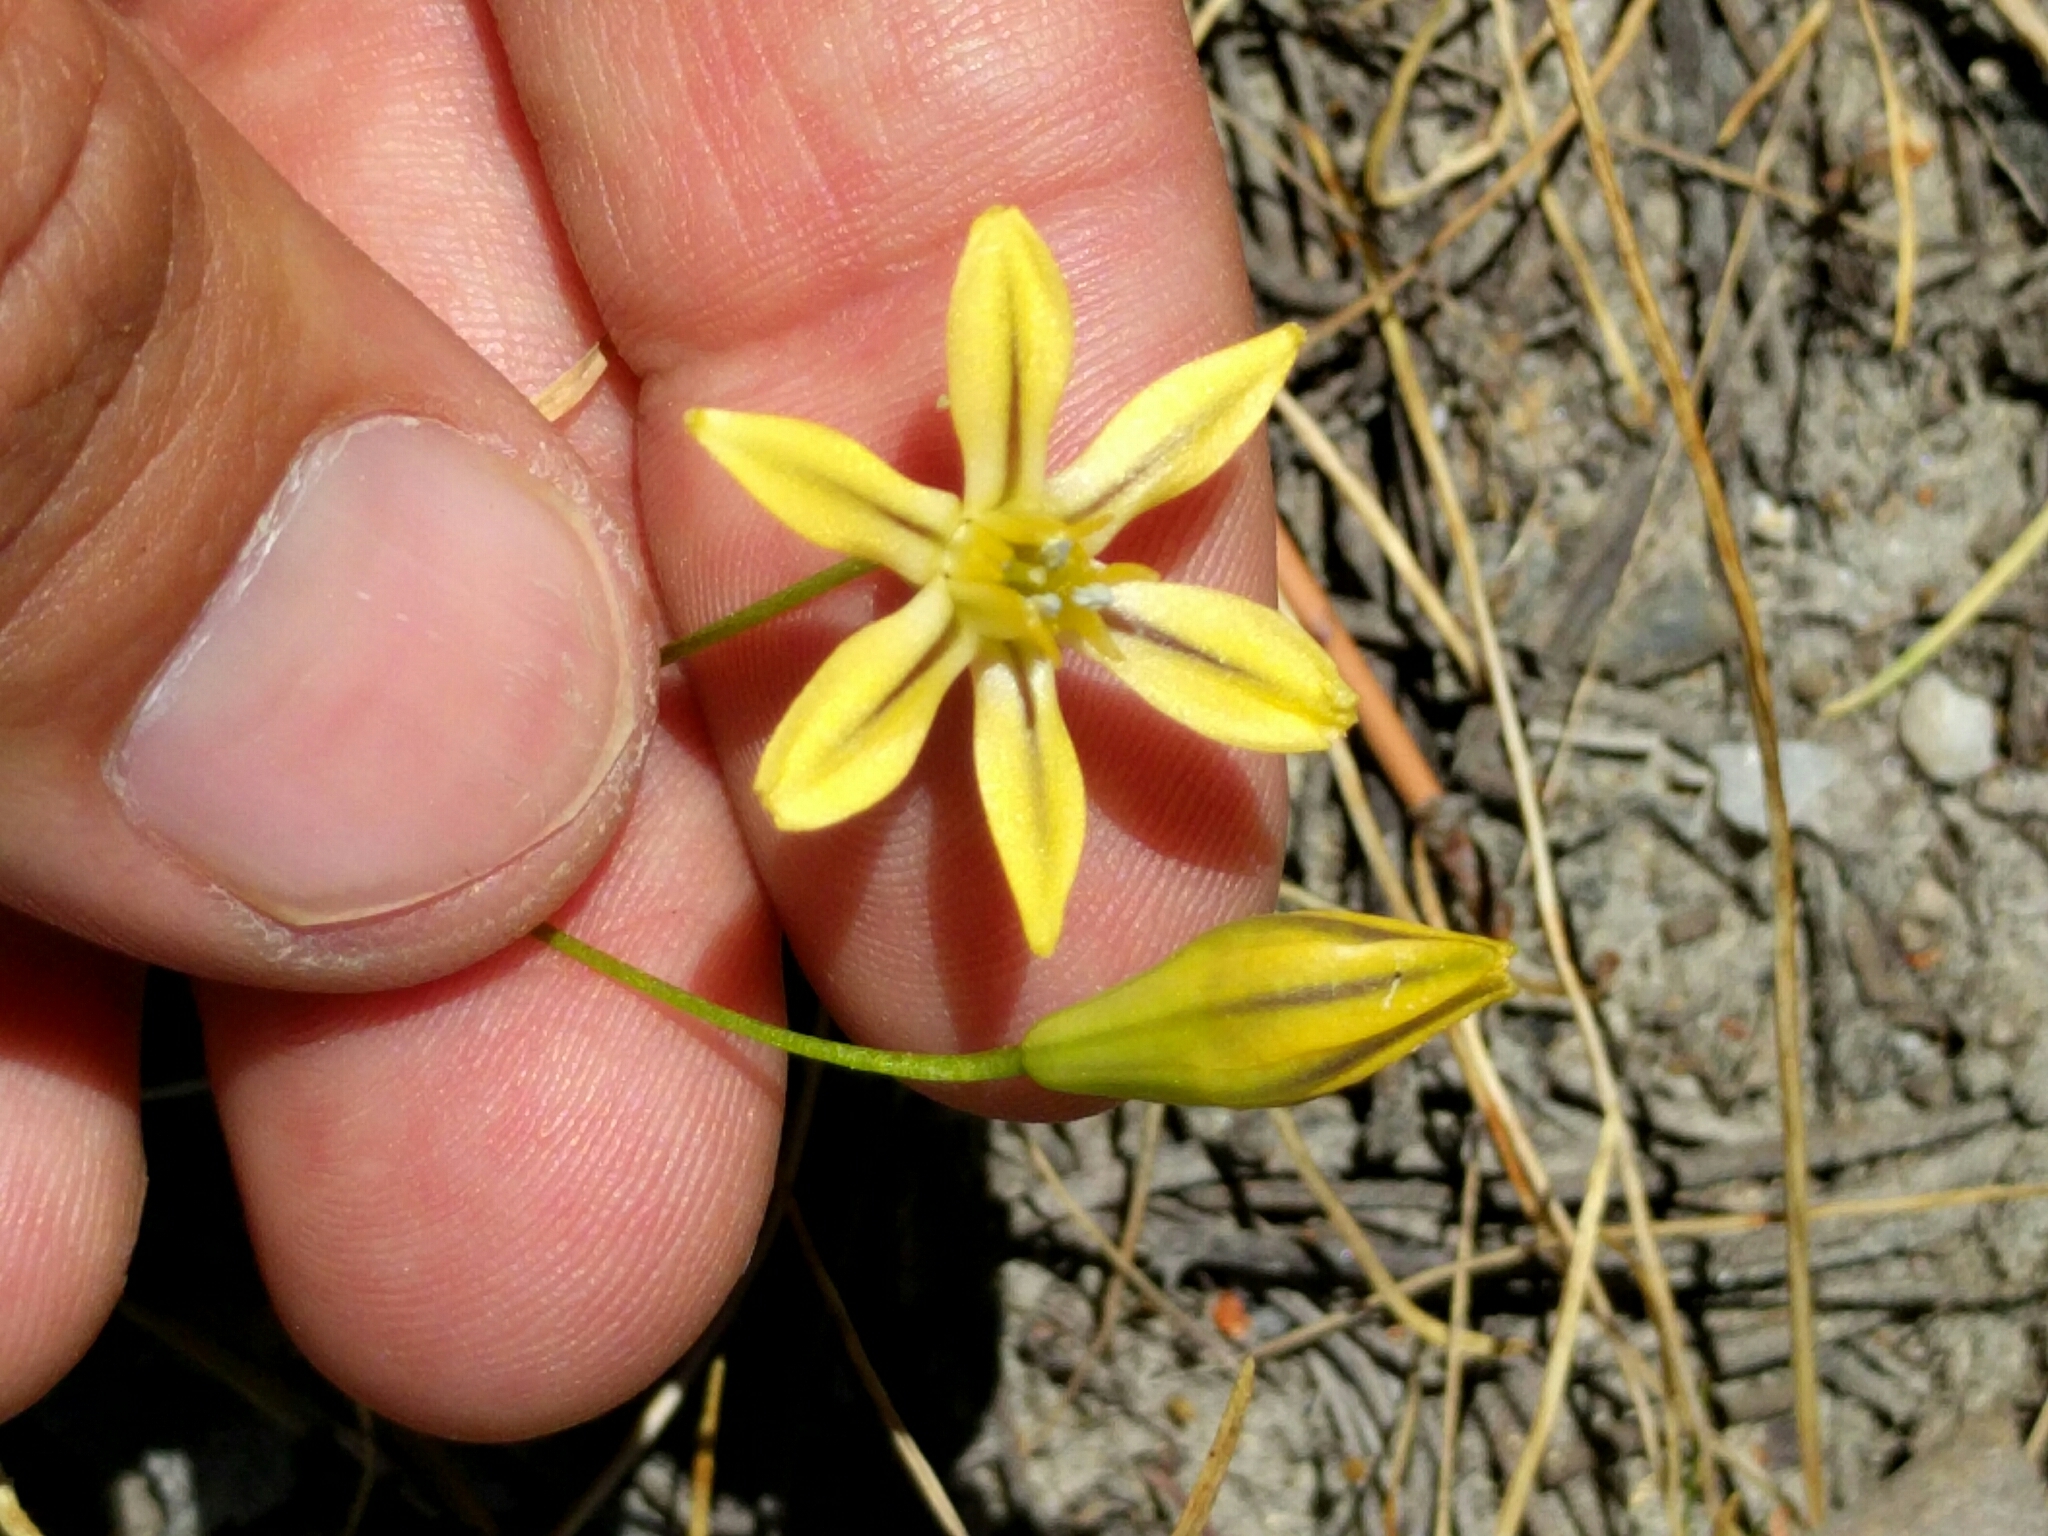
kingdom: Plantae
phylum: Tracheophyta
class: Liliopsida
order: Asparagales
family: Asparagaceae
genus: Triteleia
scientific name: Triteleia ixioides
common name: Yellow-brodiaea
